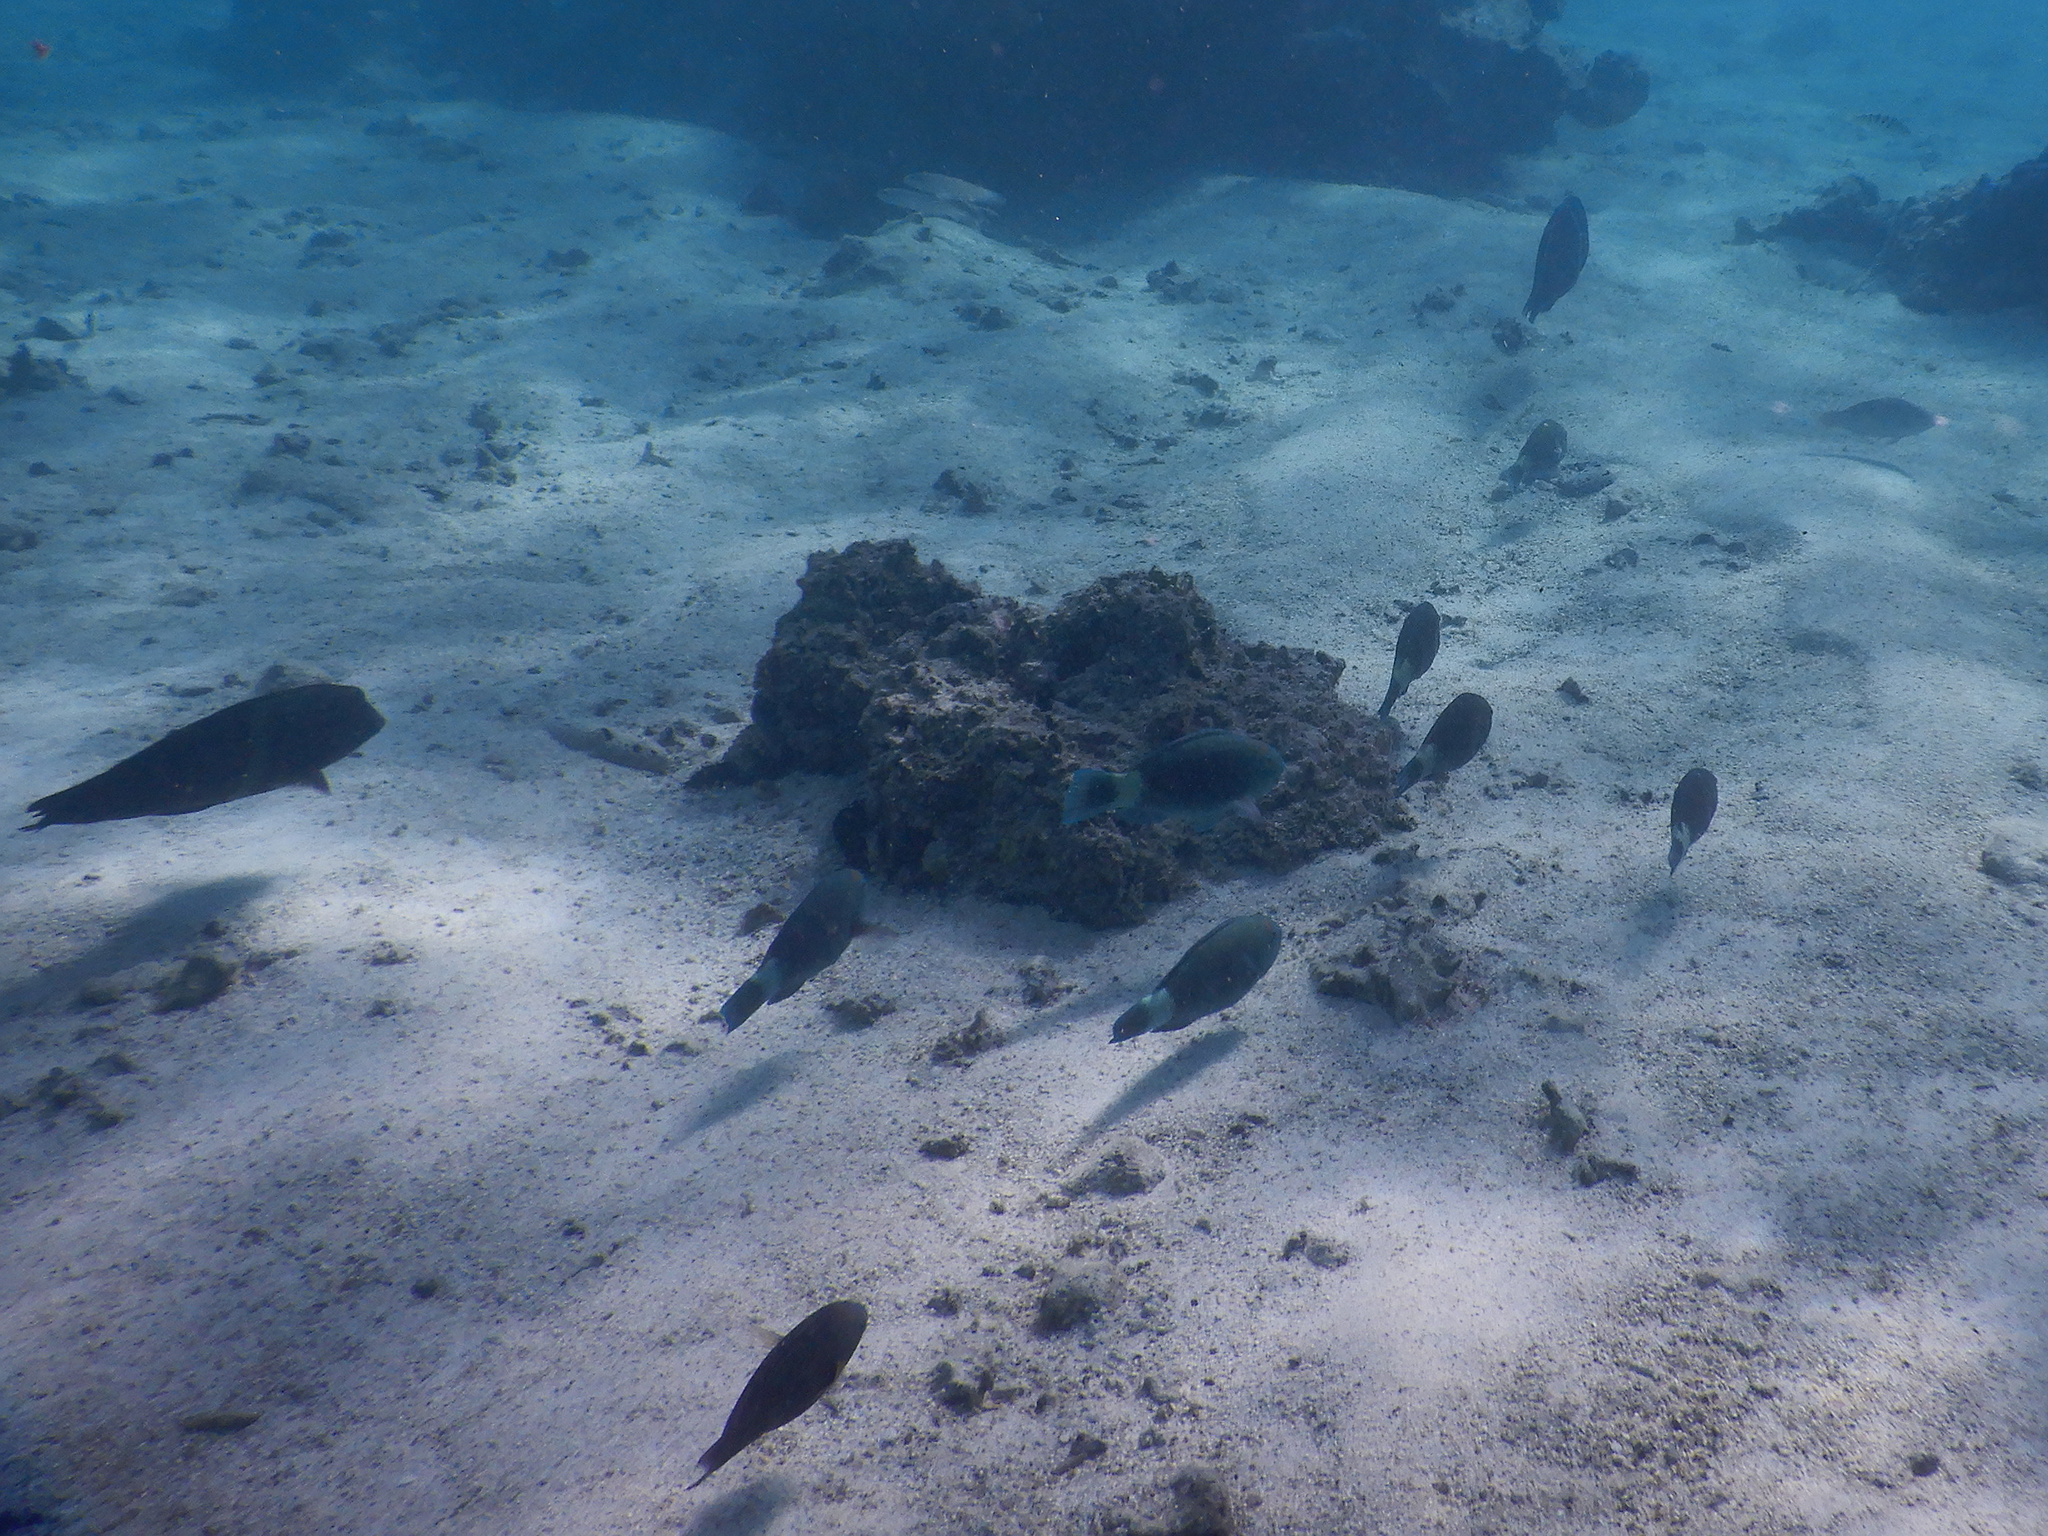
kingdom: Animalia
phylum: Chordata
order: Perciformes
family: Scaridae
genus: Chlorurus
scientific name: Chlorurus spilurus
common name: Bullethead parrotfish
